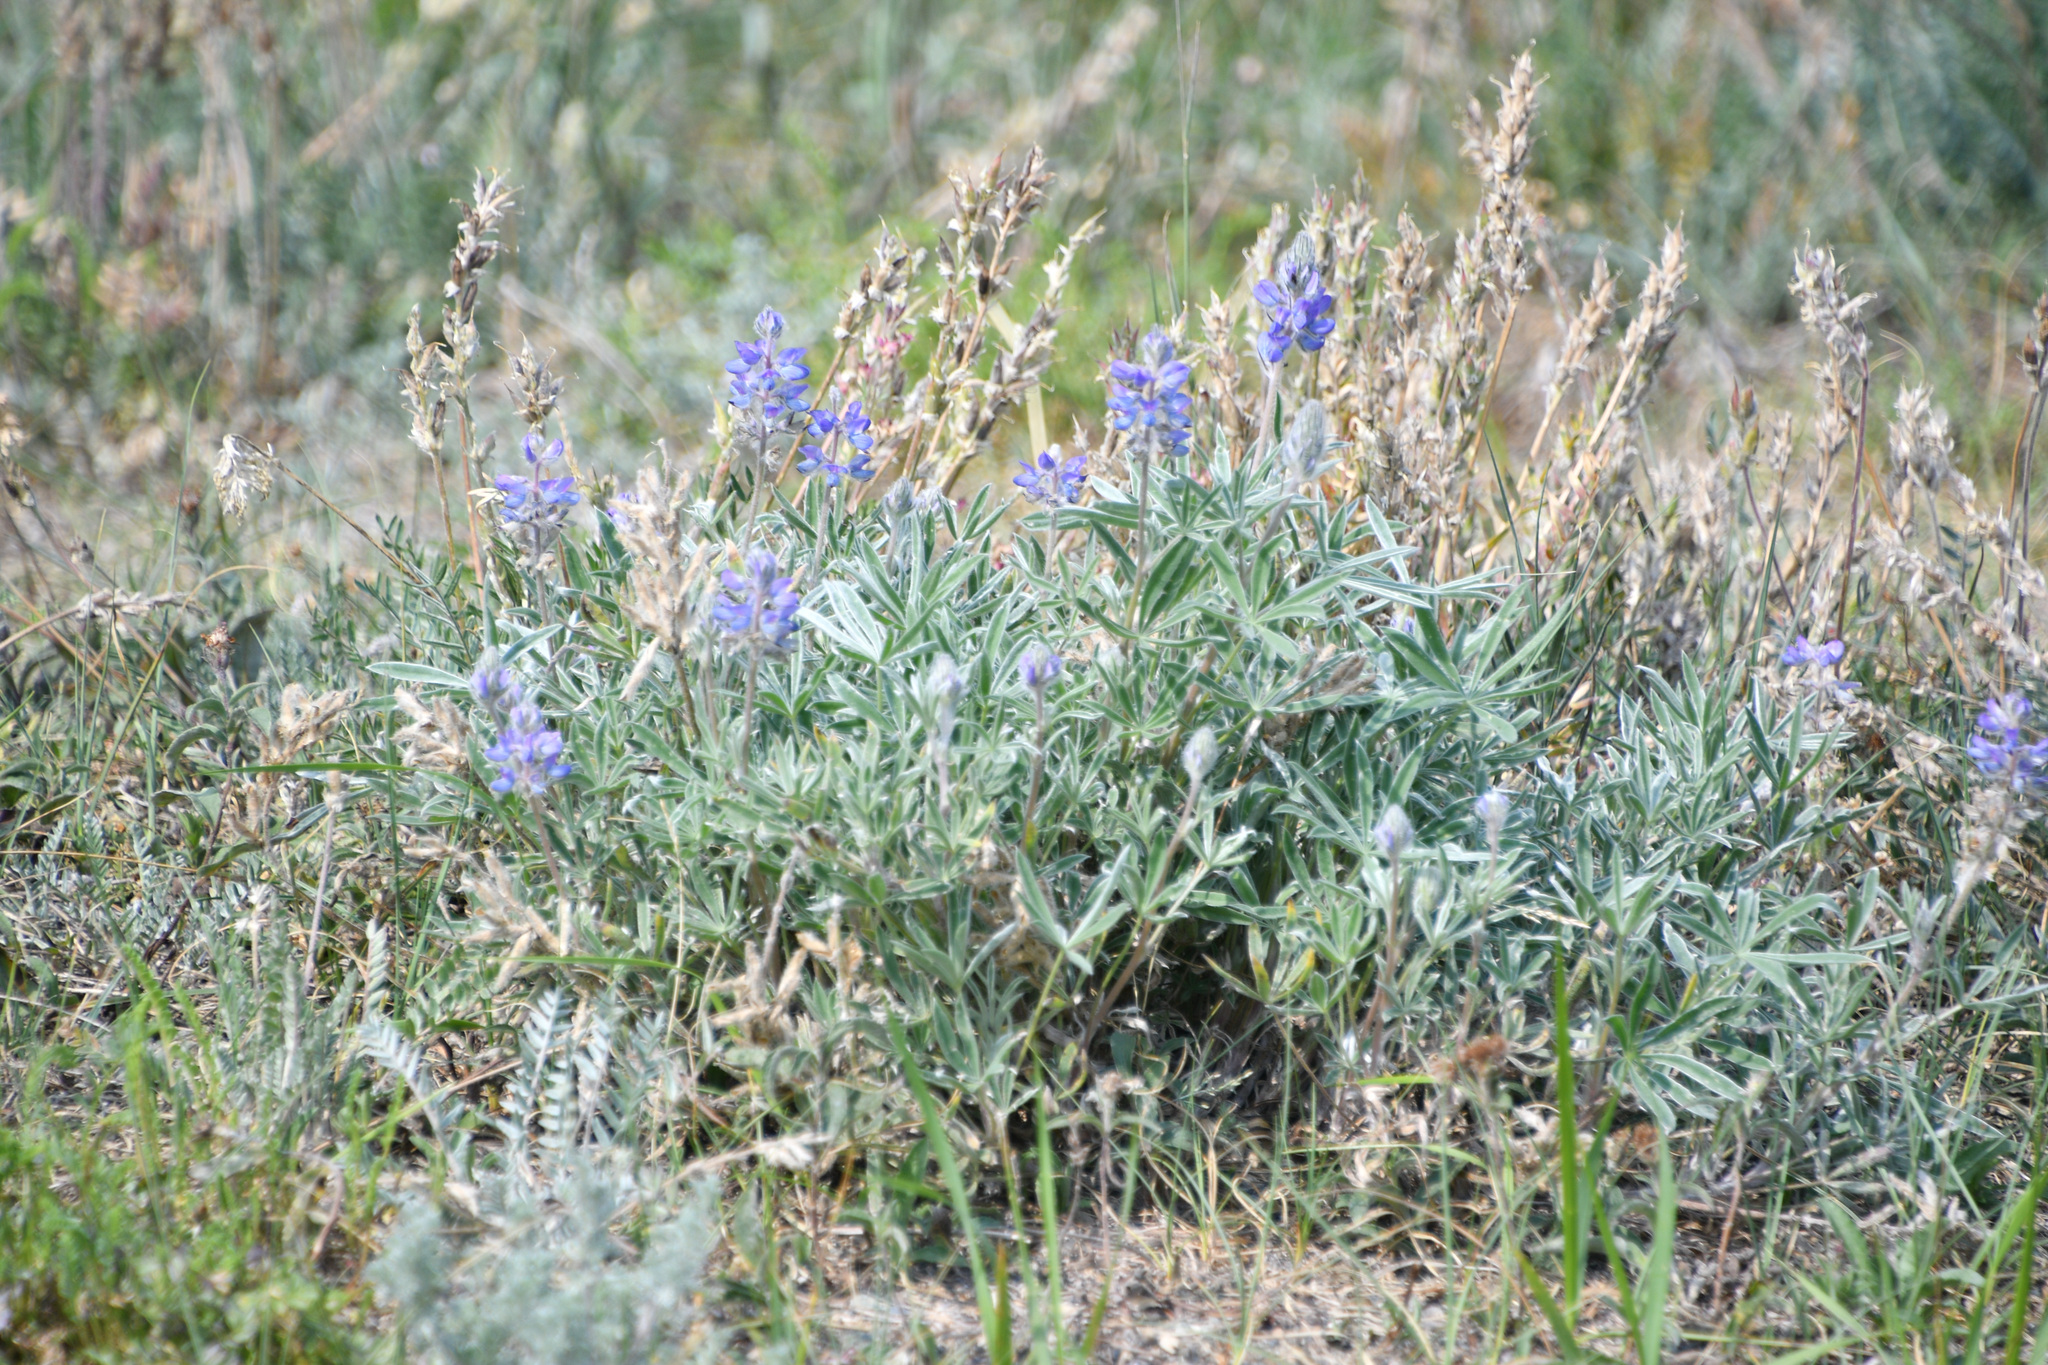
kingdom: Plantae
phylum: Tracheophyta
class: Magnoliopsida
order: Fabales
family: Fabaceae
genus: Lupinus
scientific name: Lupinus kuschei
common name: Kusche's lupine
